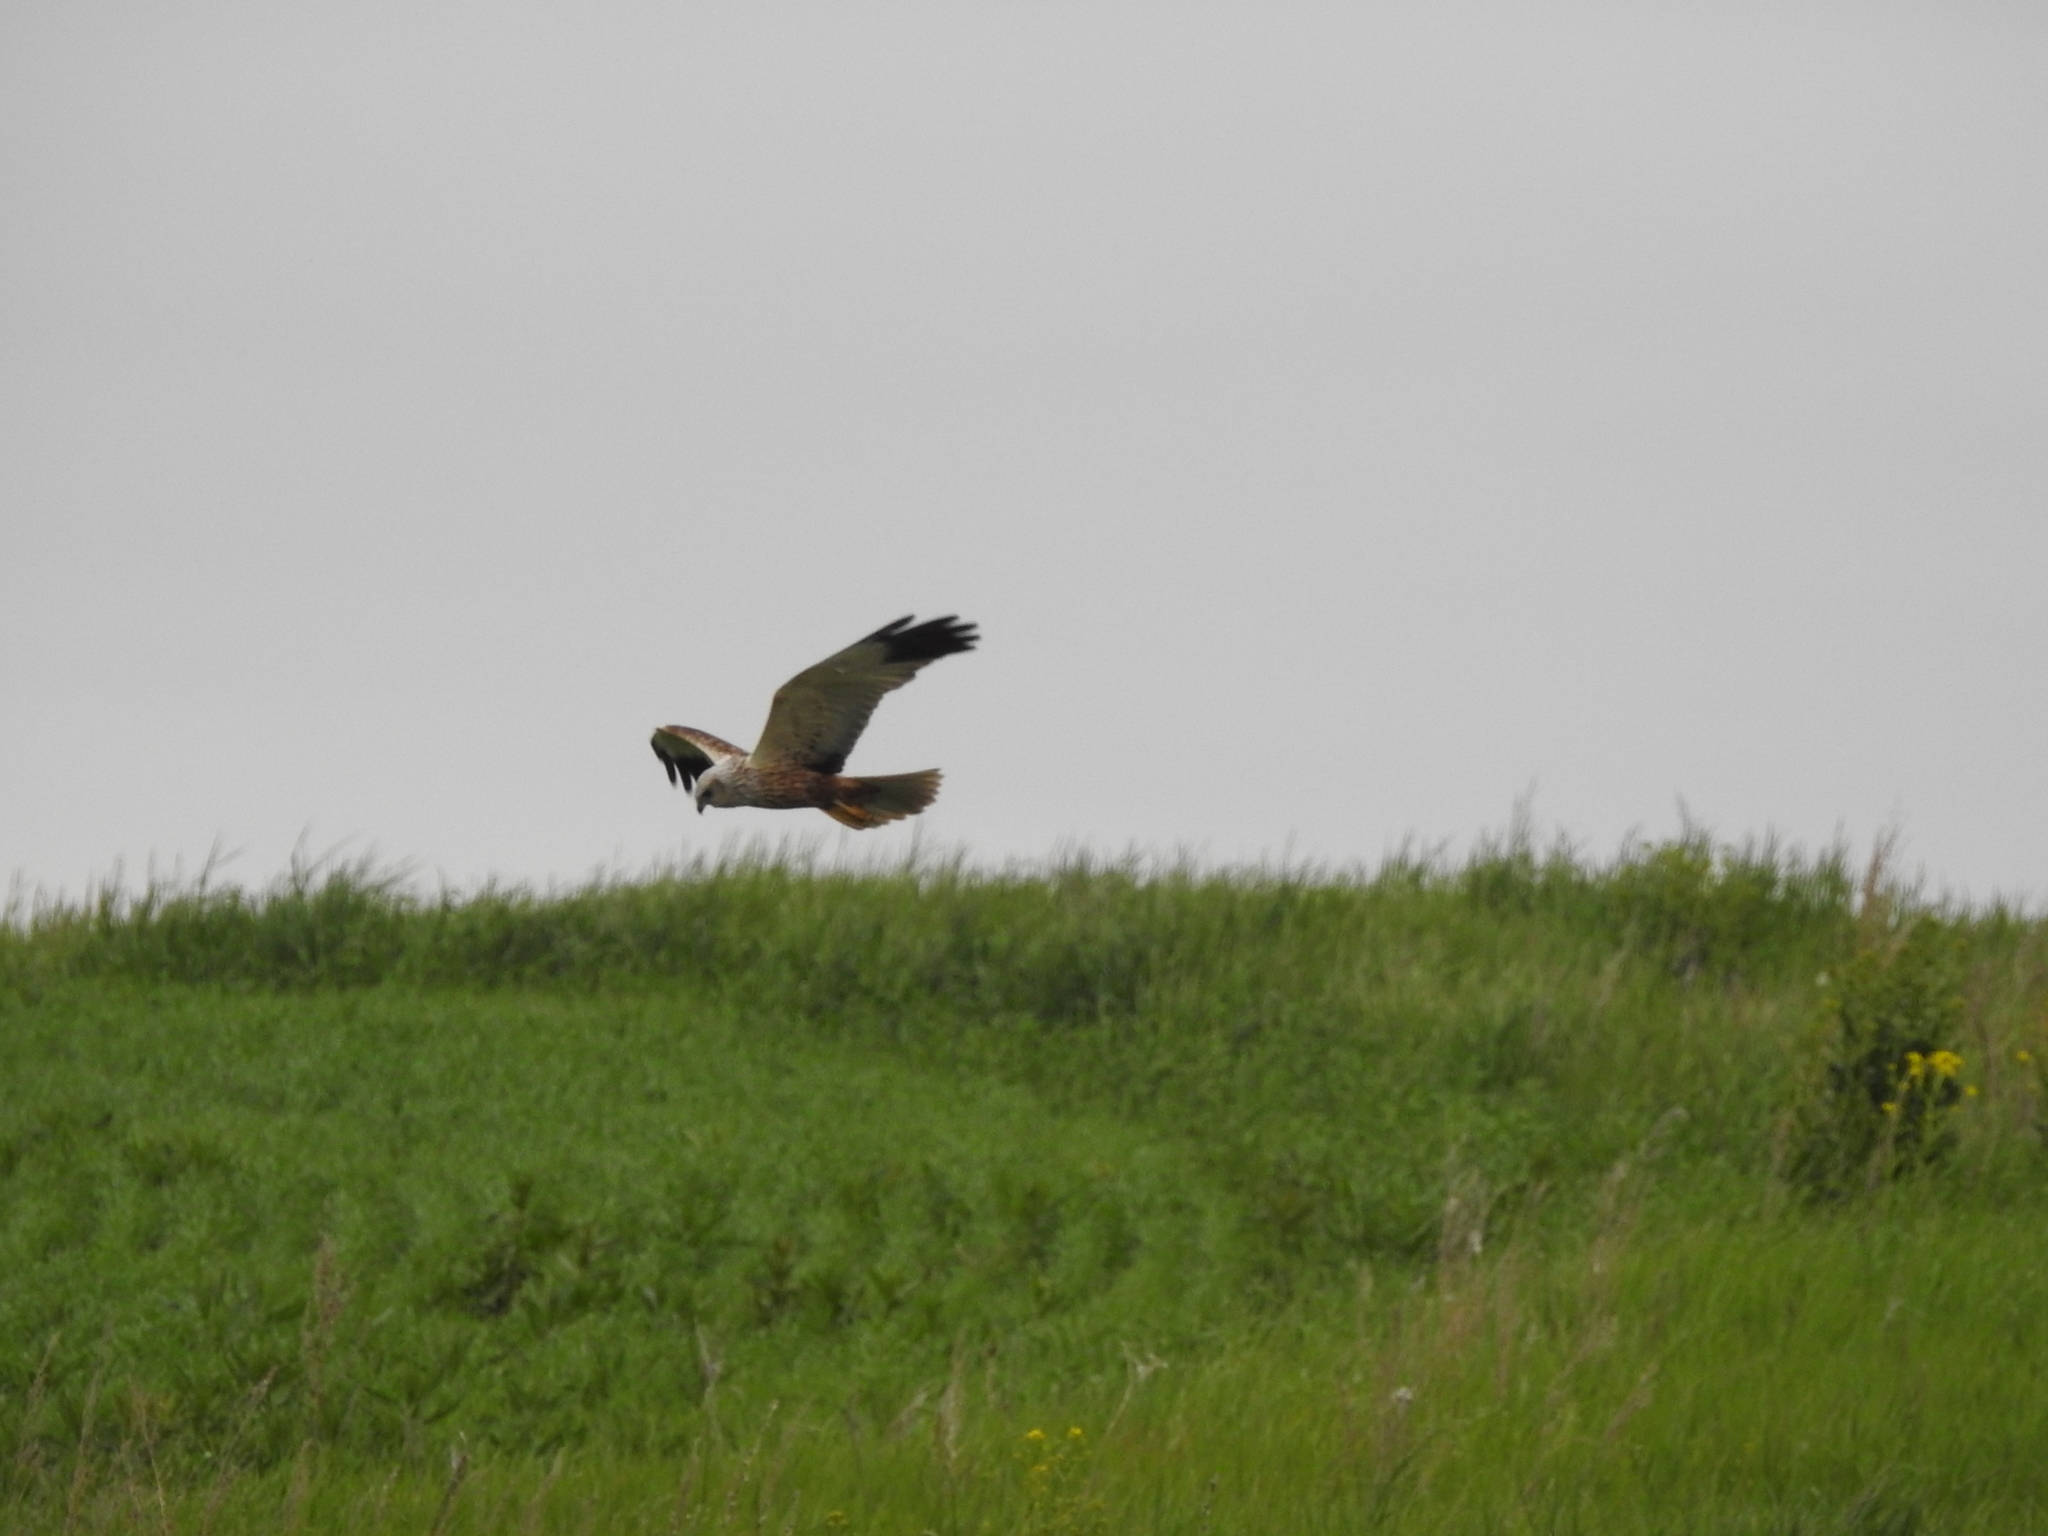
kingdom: Animalia
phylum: Chordata
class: Aves
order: Accipitriformes
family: Accipitridae
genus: Circus
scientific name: Circus aeruginosus
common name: Western marsh harrier
